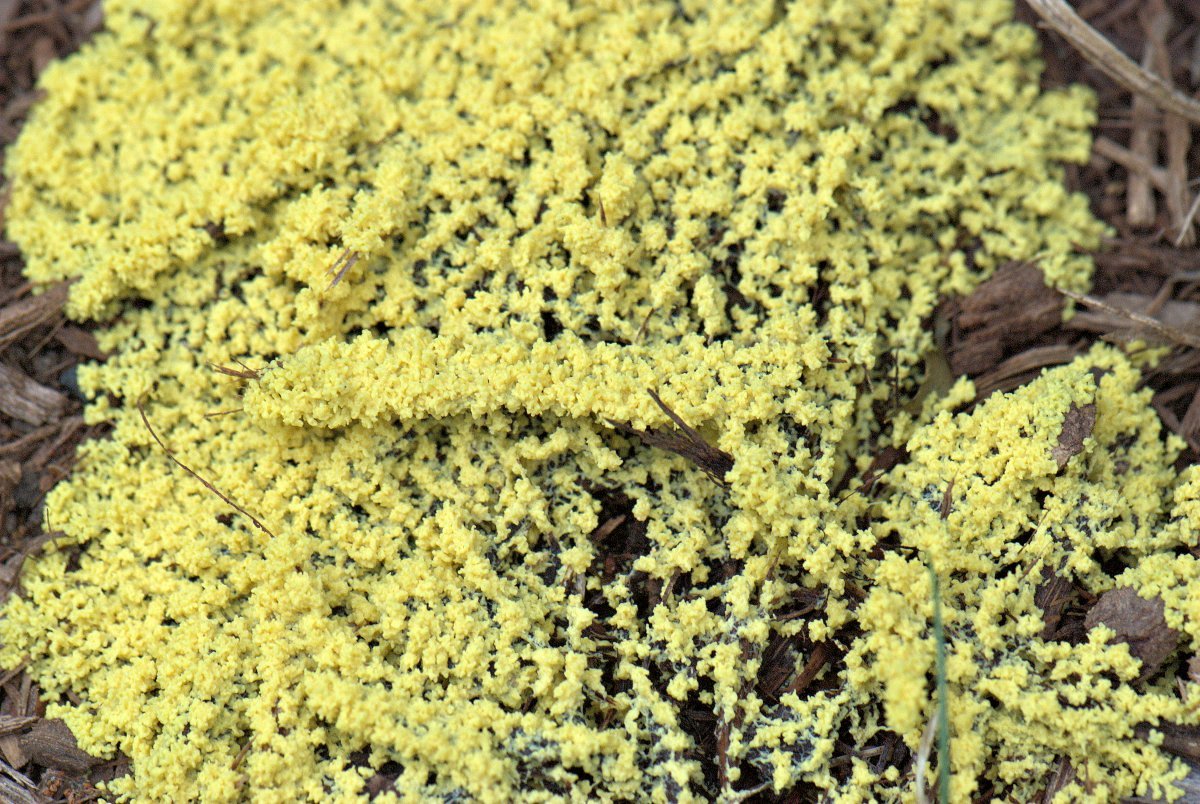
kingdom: Protozoa
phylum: Mycetozoa
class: Myxomycetes
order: Physarales
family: Physaraceae
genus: Fuligo
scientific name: Fuligo septica
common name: Dog vomit slime mold
